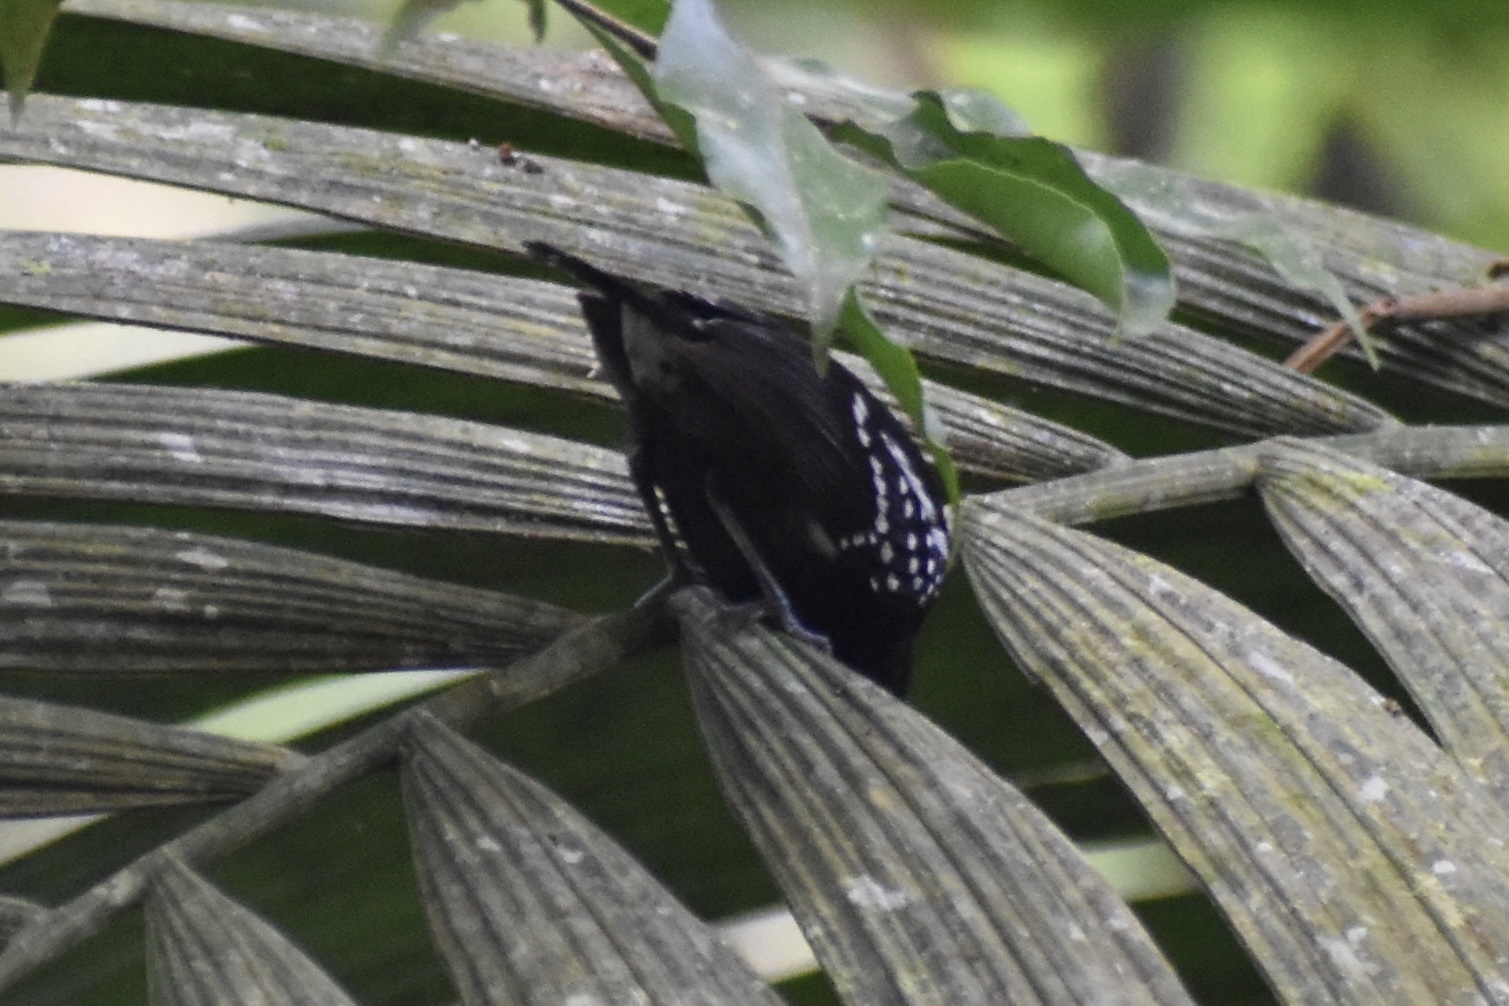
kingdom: Animalia
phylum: Chordata
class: Aves
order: Passeriformes
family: Thamnophilidae
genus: Microrhopias
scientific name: Microrhopias quixensis
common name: Dot-winged antwren
